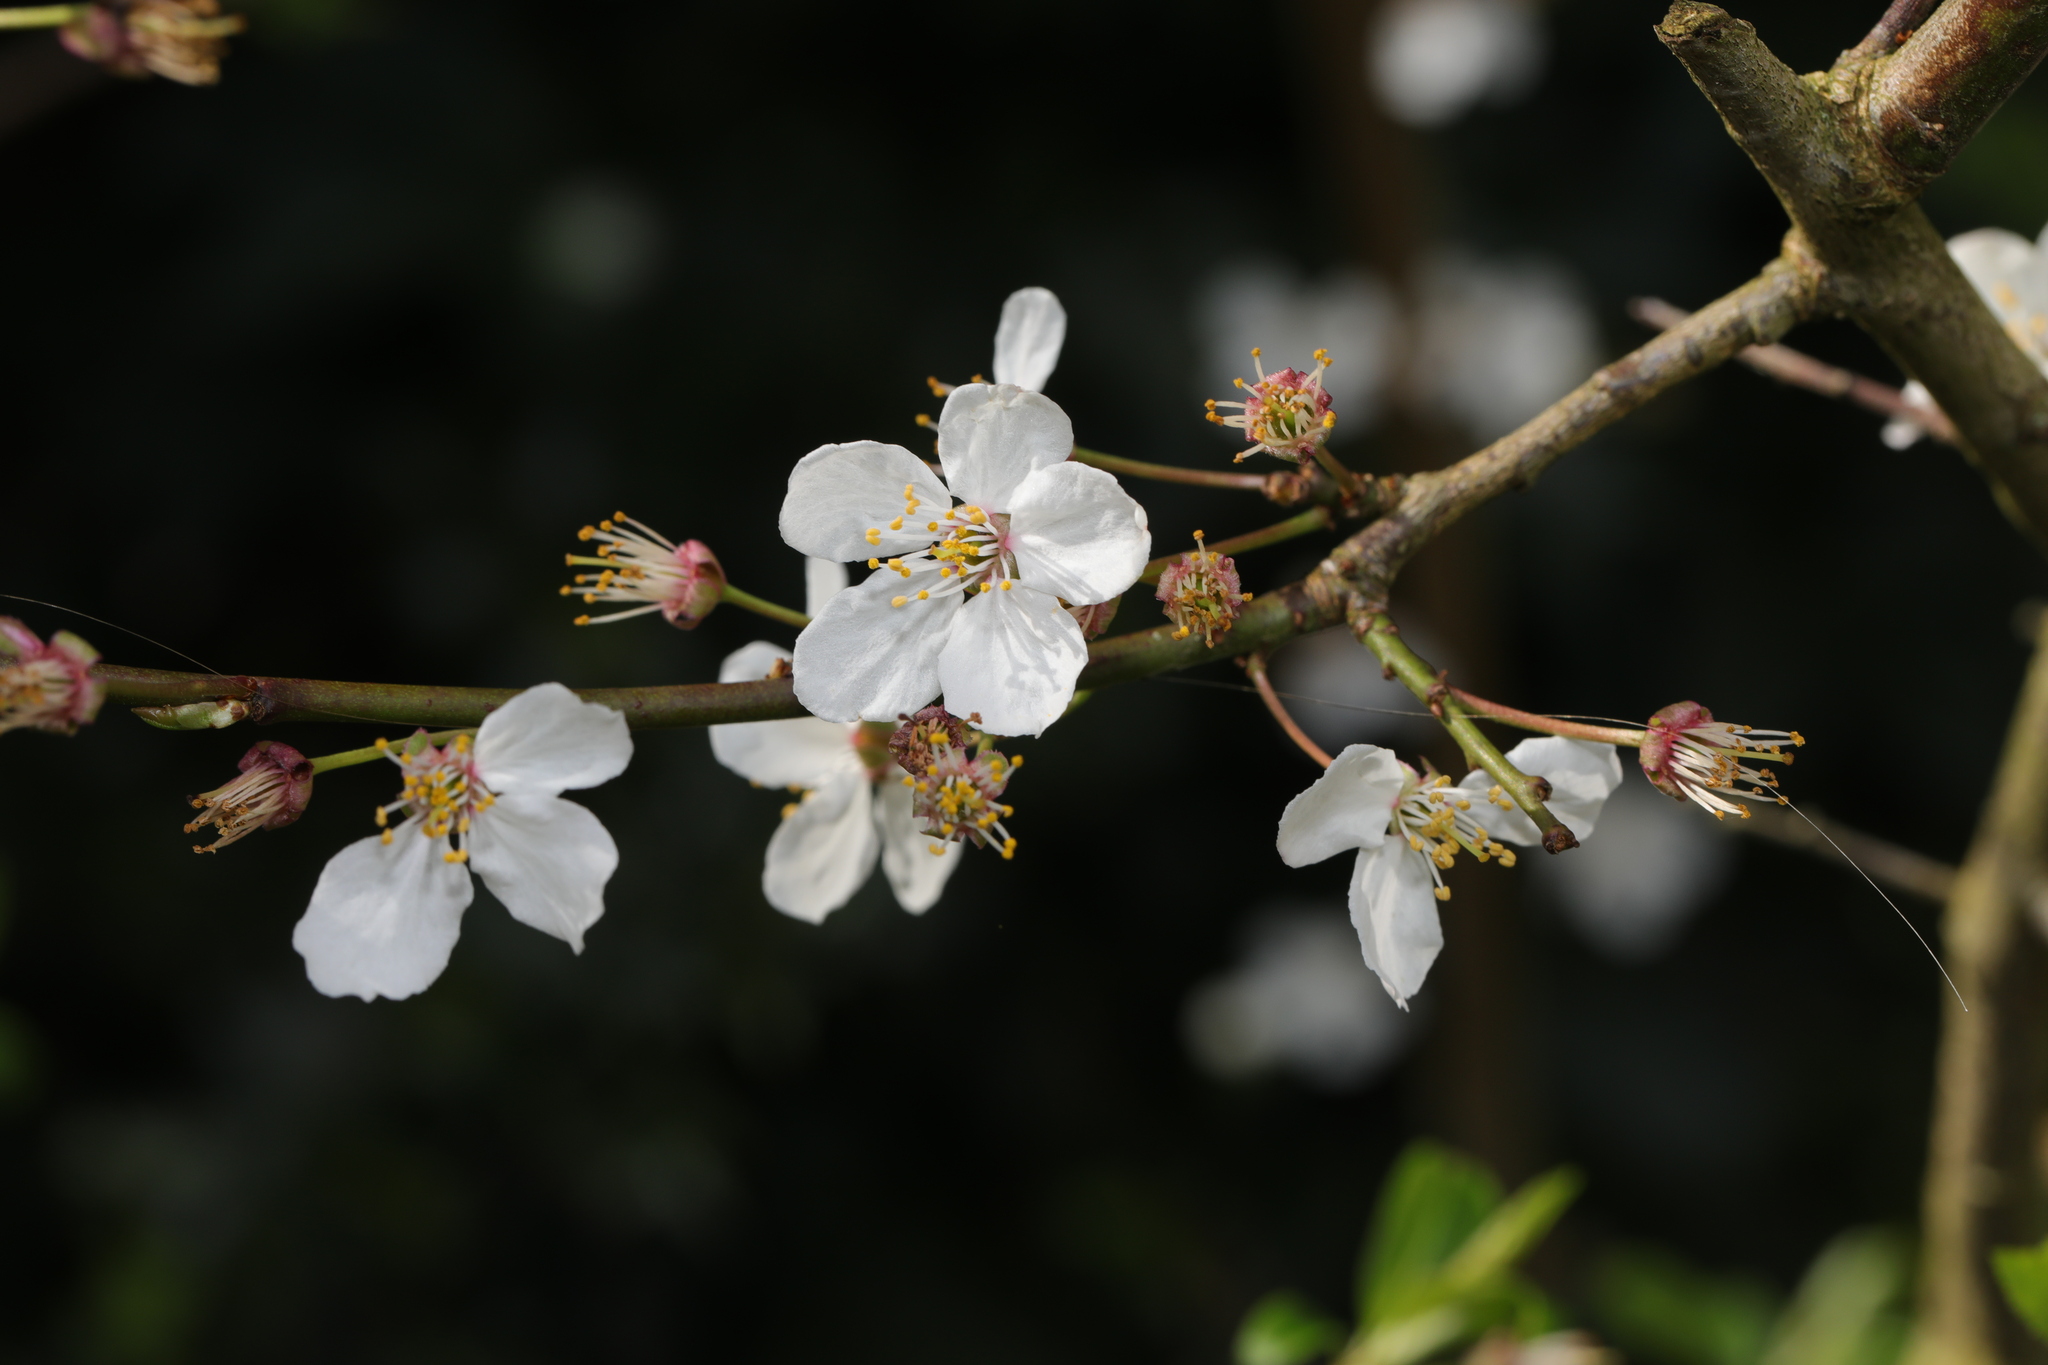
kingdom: Plantae
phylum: Tracheophyta
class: Magnoliopsida
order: Rosales
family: Rosaceae
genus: Prunus
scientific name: Prunus cerasifera
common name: Cherry plum
